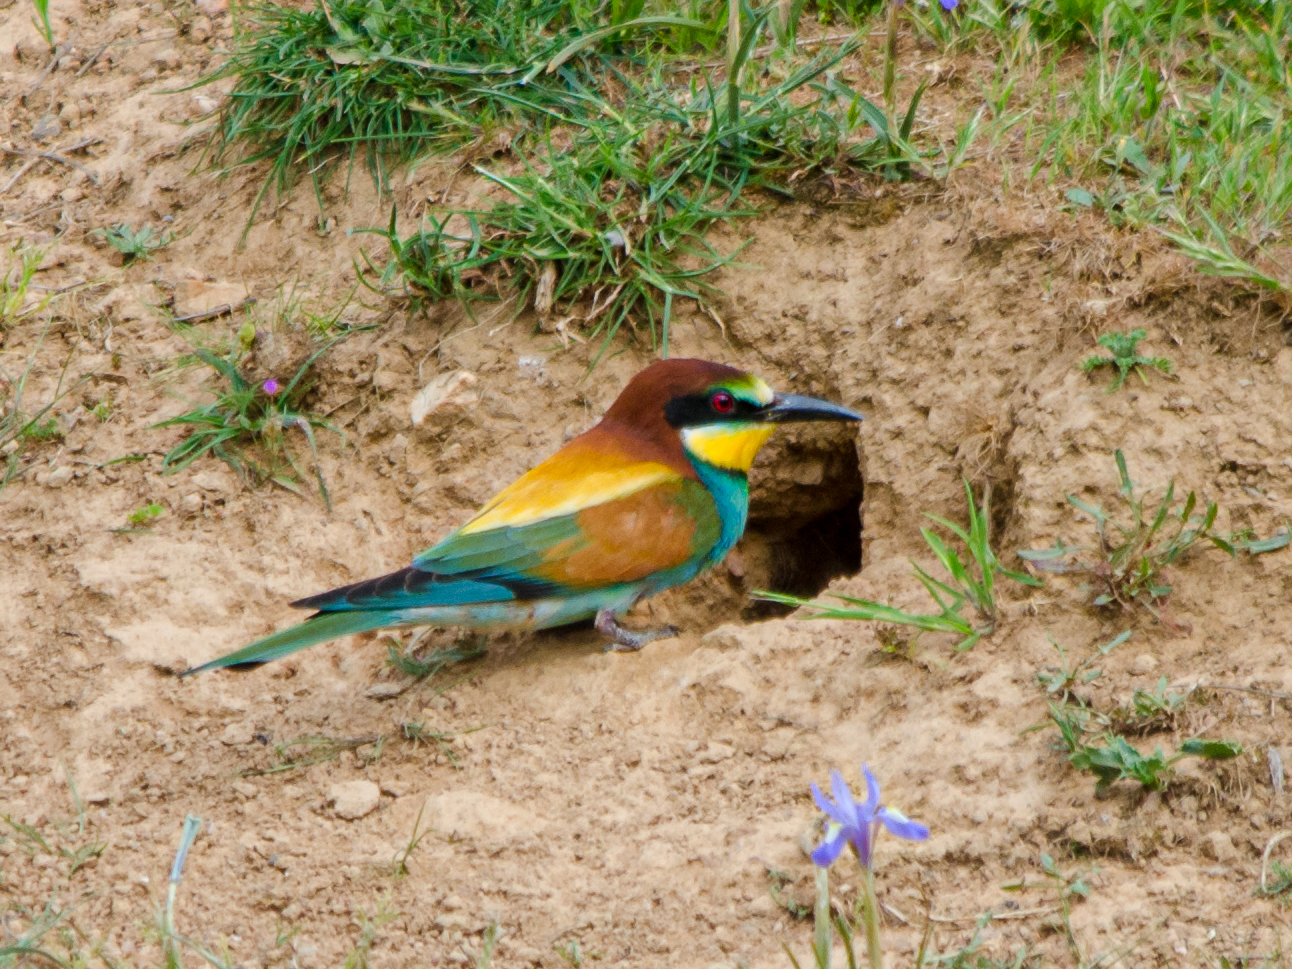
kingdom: Animalia
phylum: Chordata
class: Aves
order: Coraciiformes
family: Meropidae
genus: Merops
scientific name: Merops apiaster
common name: European bee-eater
